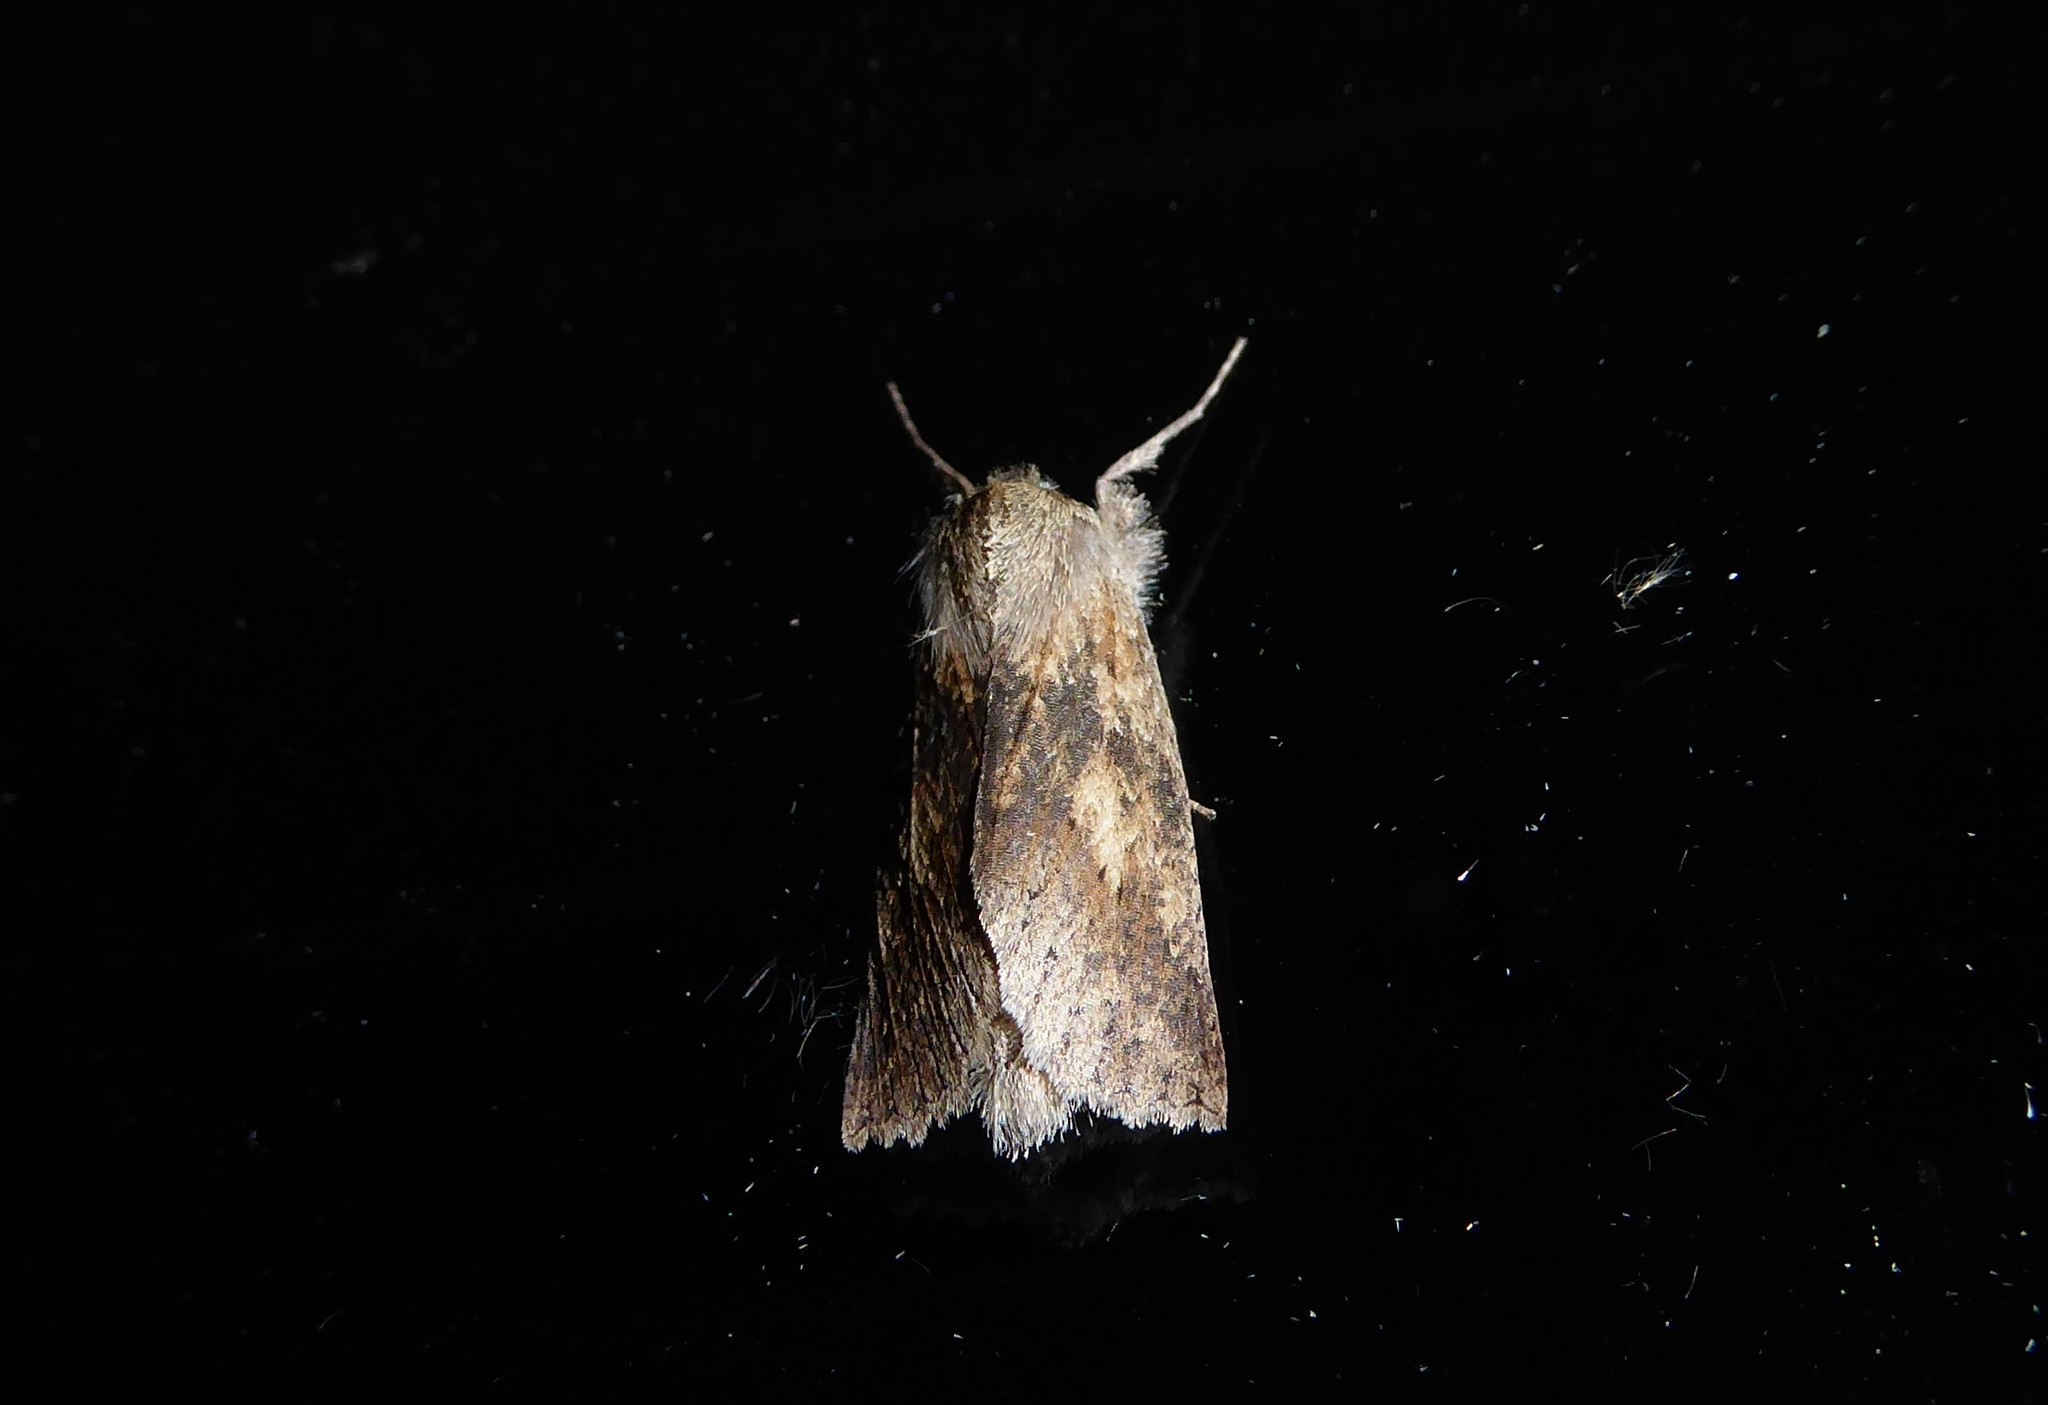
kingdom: Animalia
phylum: Arthropoda
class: Insecta
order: Lepidoptera
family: Geometridae
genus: Declana
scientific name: Declana leptomera
